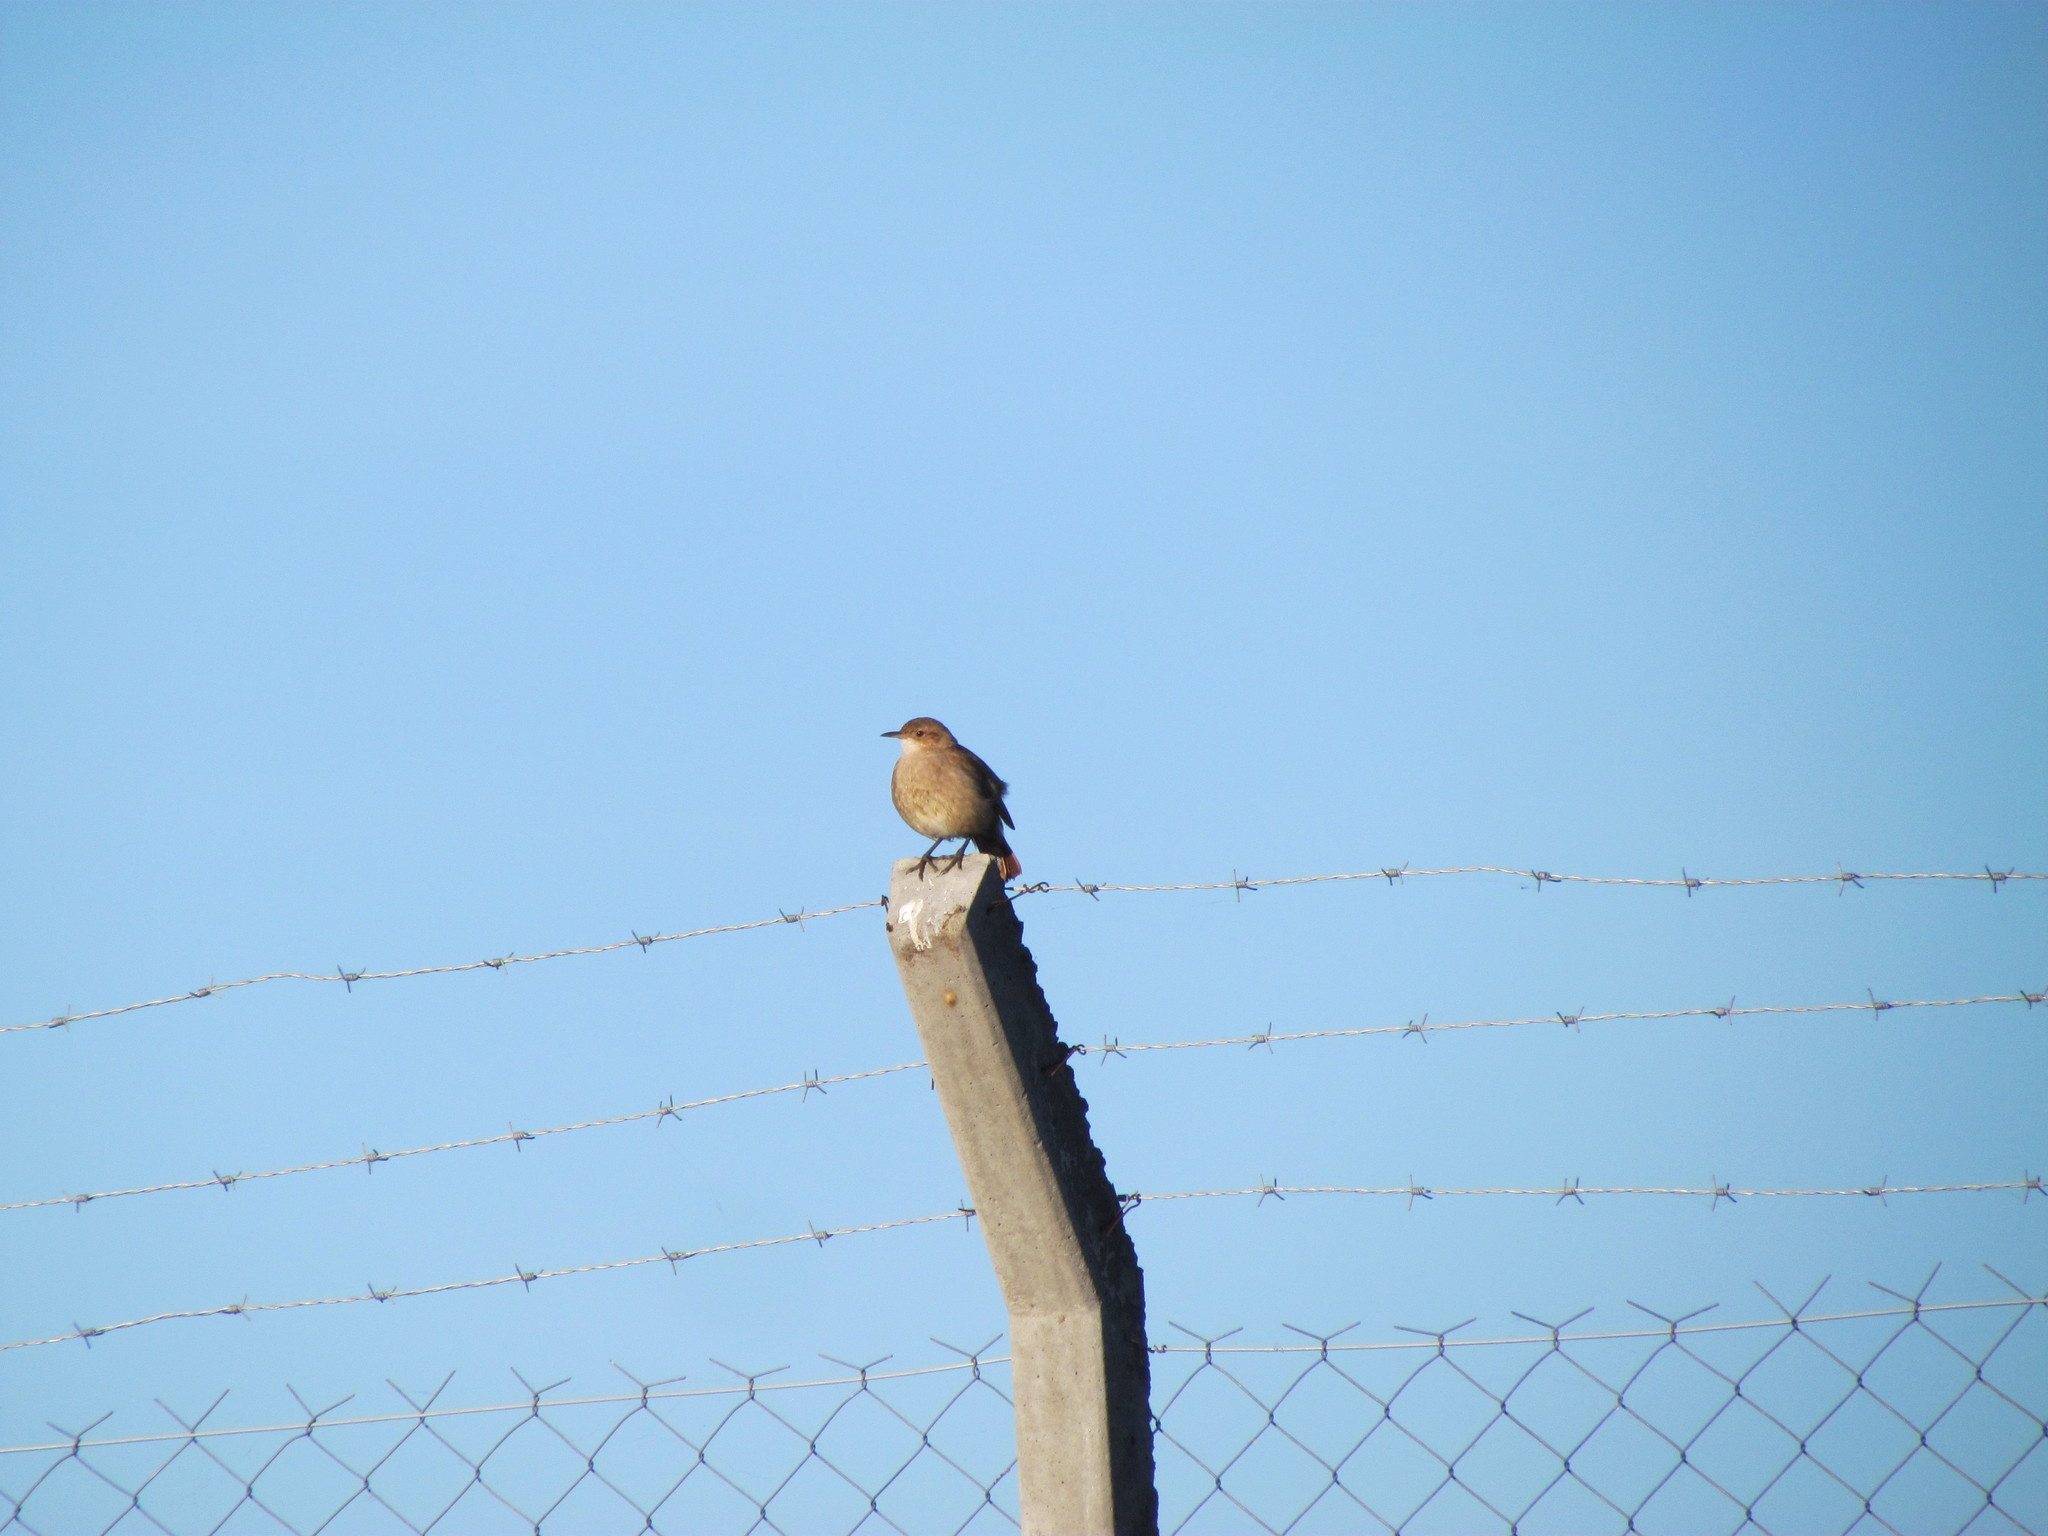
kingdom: Animalia
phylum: Chordata
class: Aves
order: Passeriformes
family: Furnariidae
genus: Furnarius
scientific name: Furnarius rufus
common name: Rufous hornero
